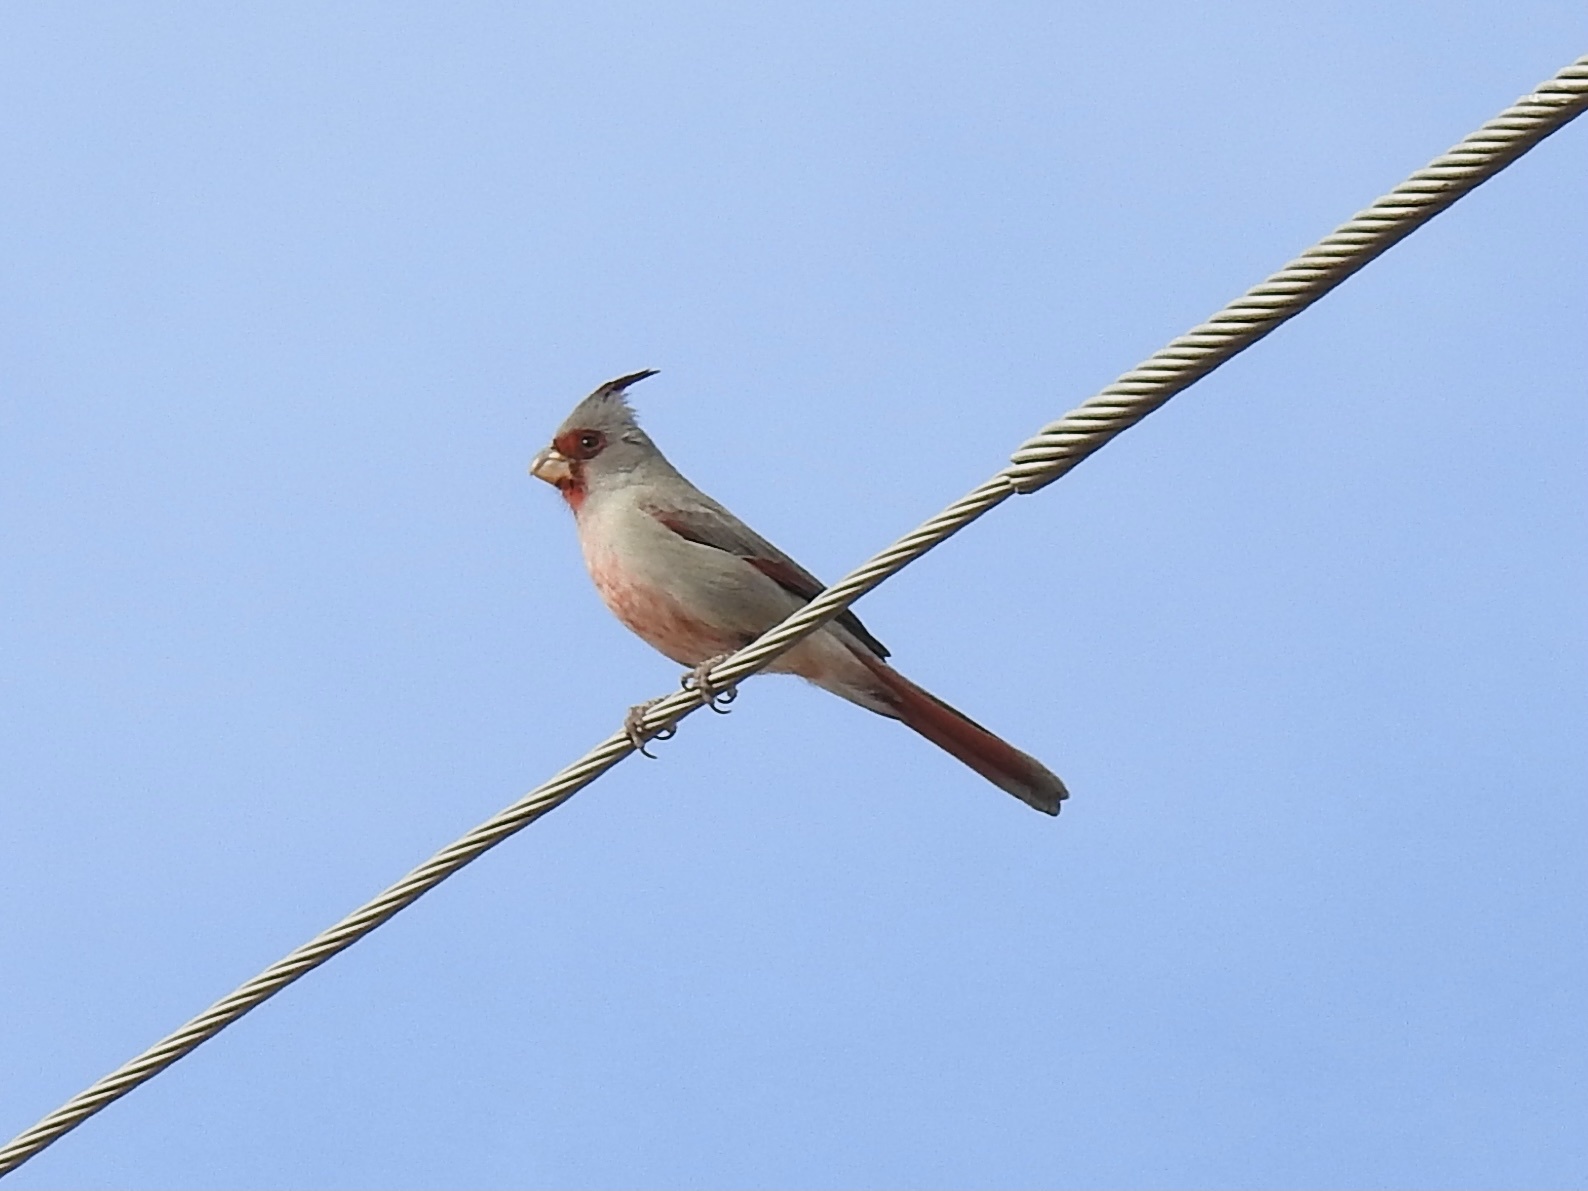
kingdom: Animalia
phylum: Chordata
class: Aves
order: Passeriformes
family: Cardinalidae
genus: Cardinalis
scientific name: Cardinalis sinuatus
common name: Pyrrhuloxia
